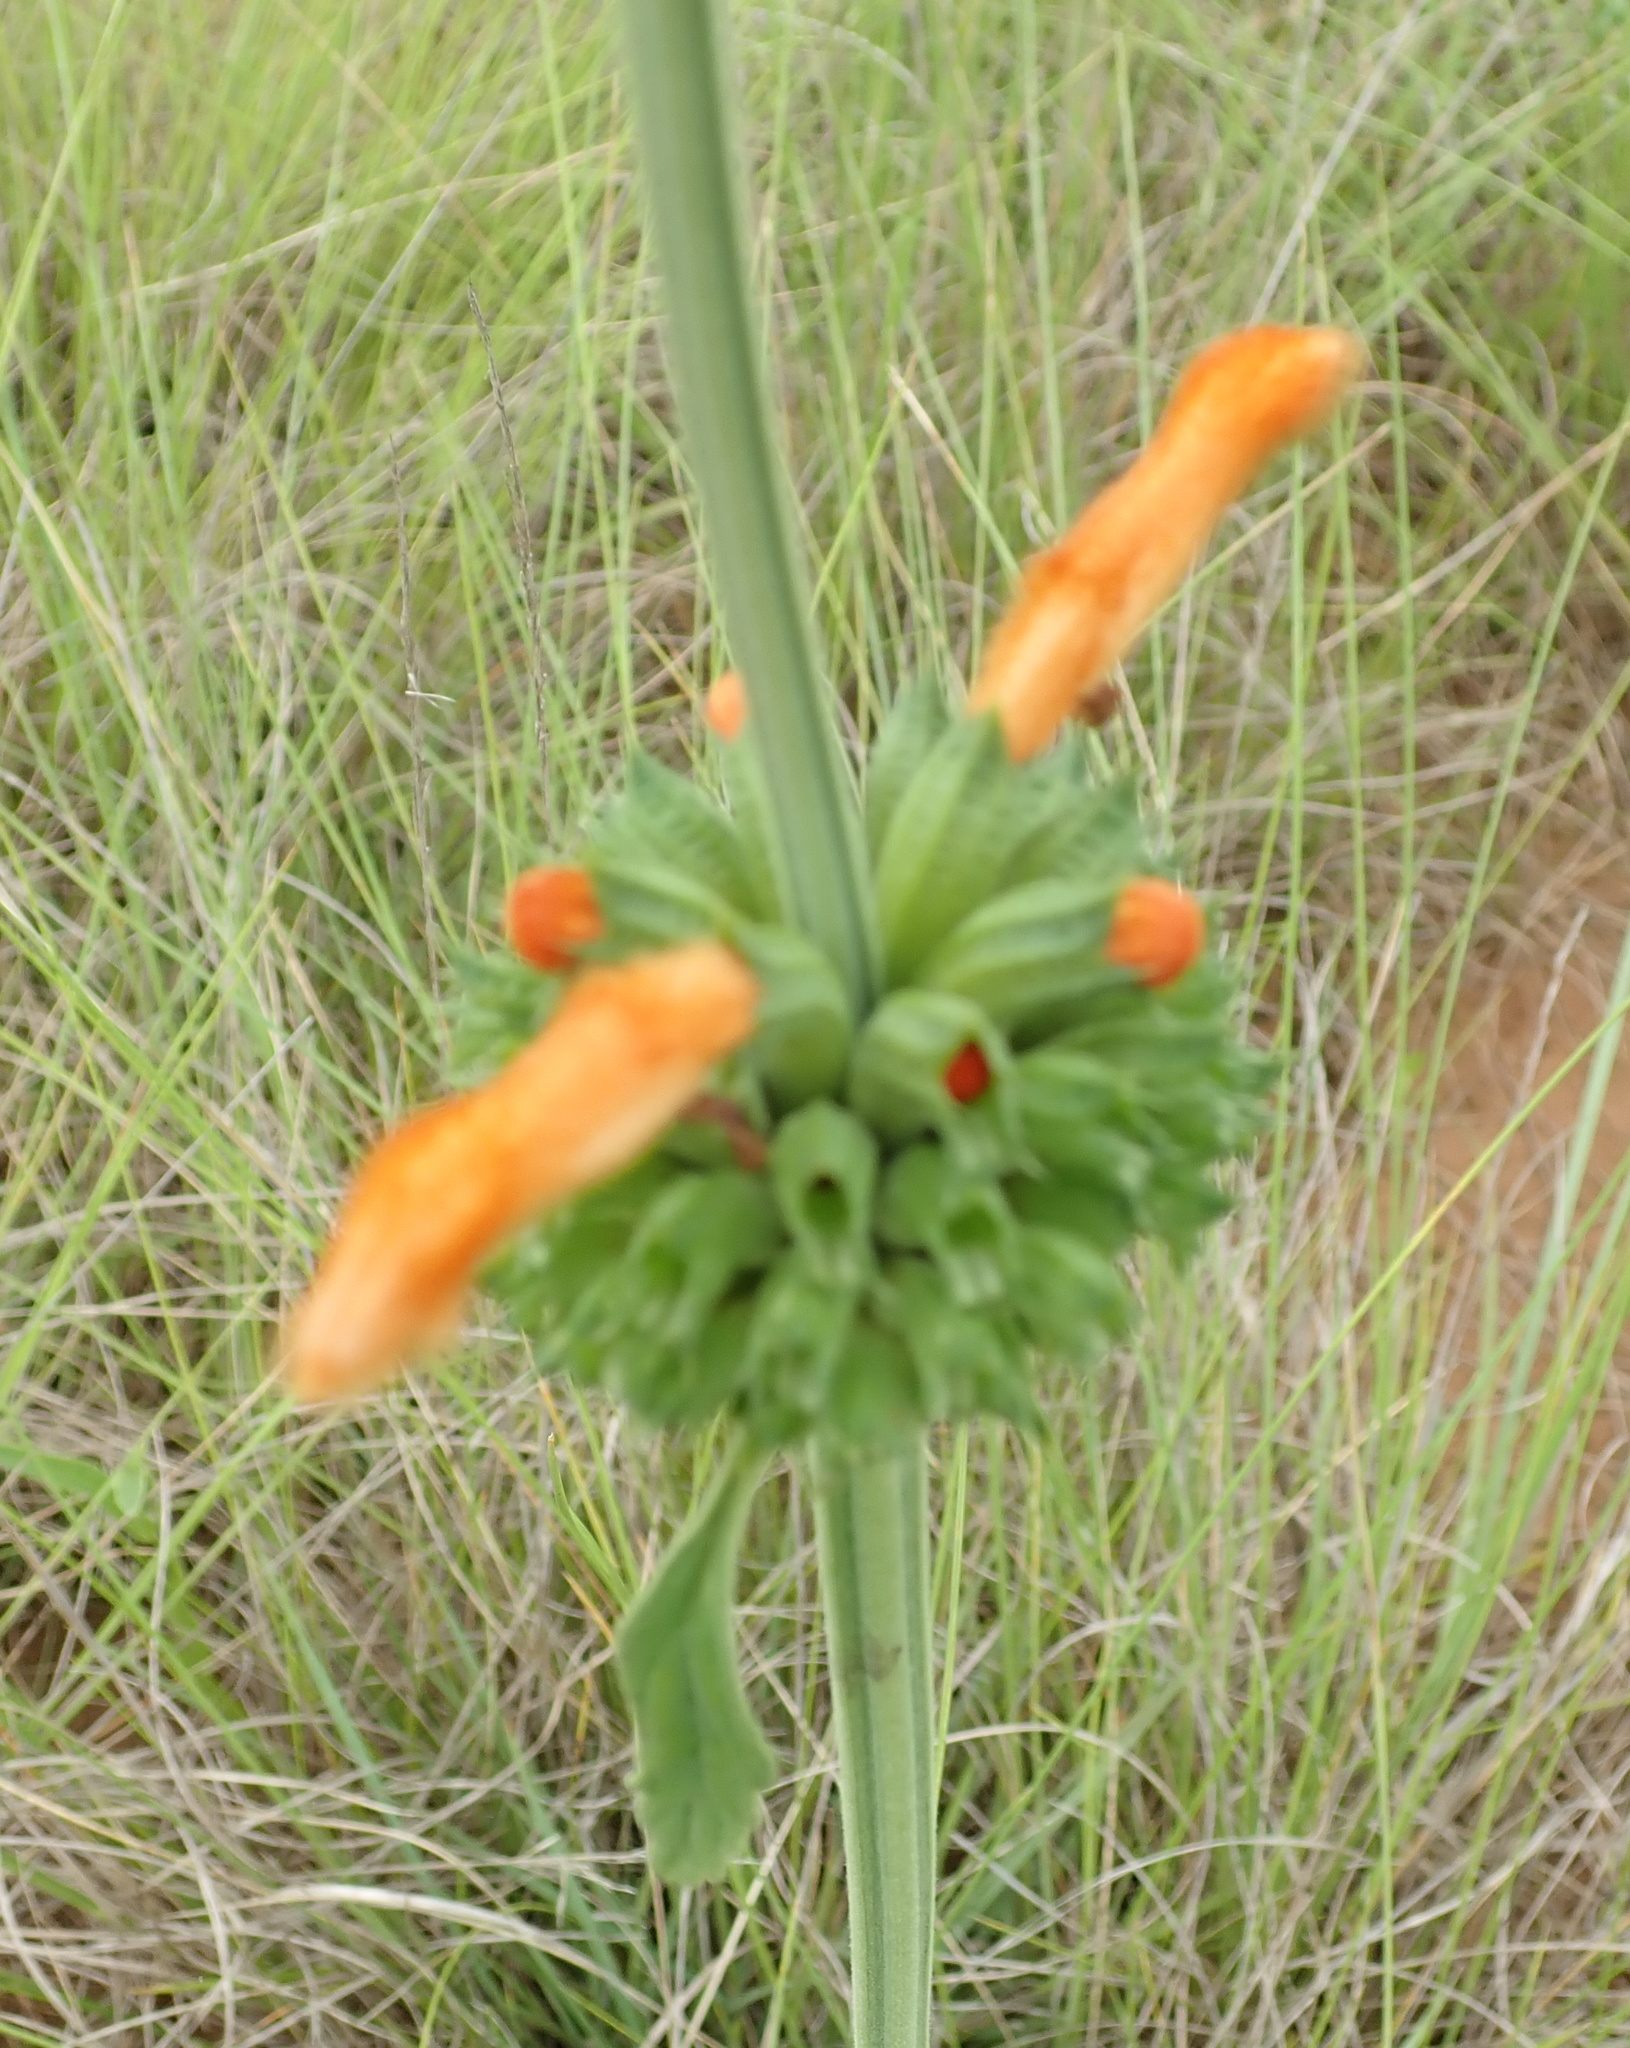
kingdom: Plantae
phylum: Tracheophyta
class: Magnoliopsida
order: Lamiales
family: Lamiaceae
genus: Leonotis
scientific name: Leonotis ocymifolia
